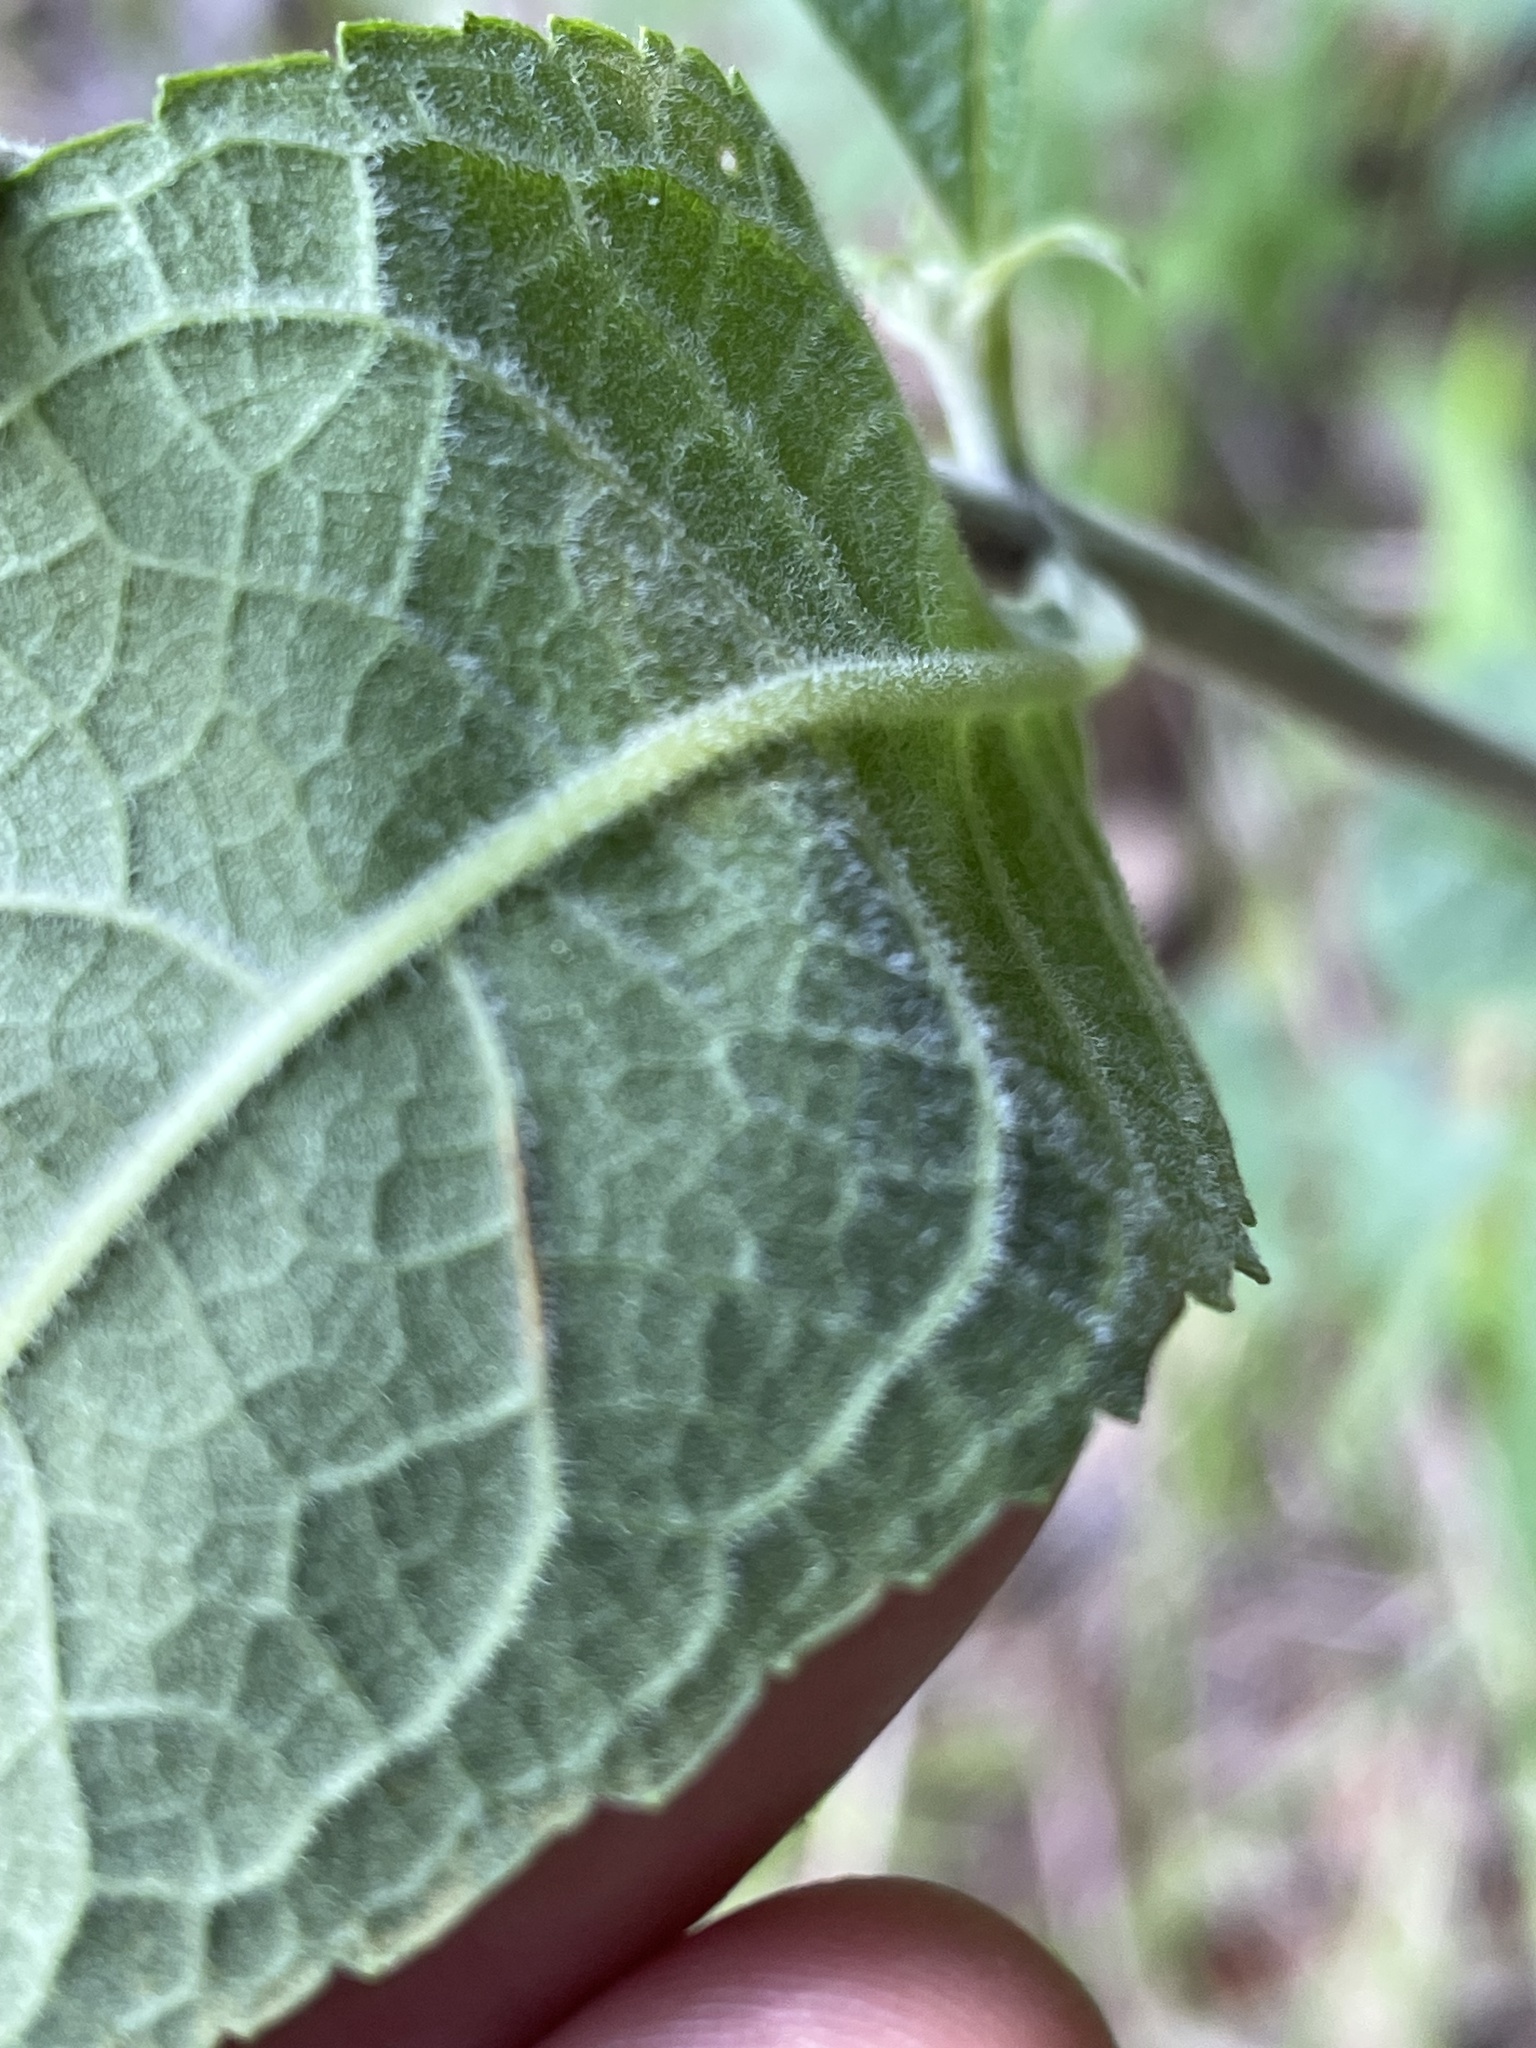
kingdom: Plantae
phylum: Tracheophyta
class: Magnoliopsida
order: Asterales
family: Asteraceae
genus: Eutrochium
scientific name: Eutrochium purpureum
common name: Gravelroot
